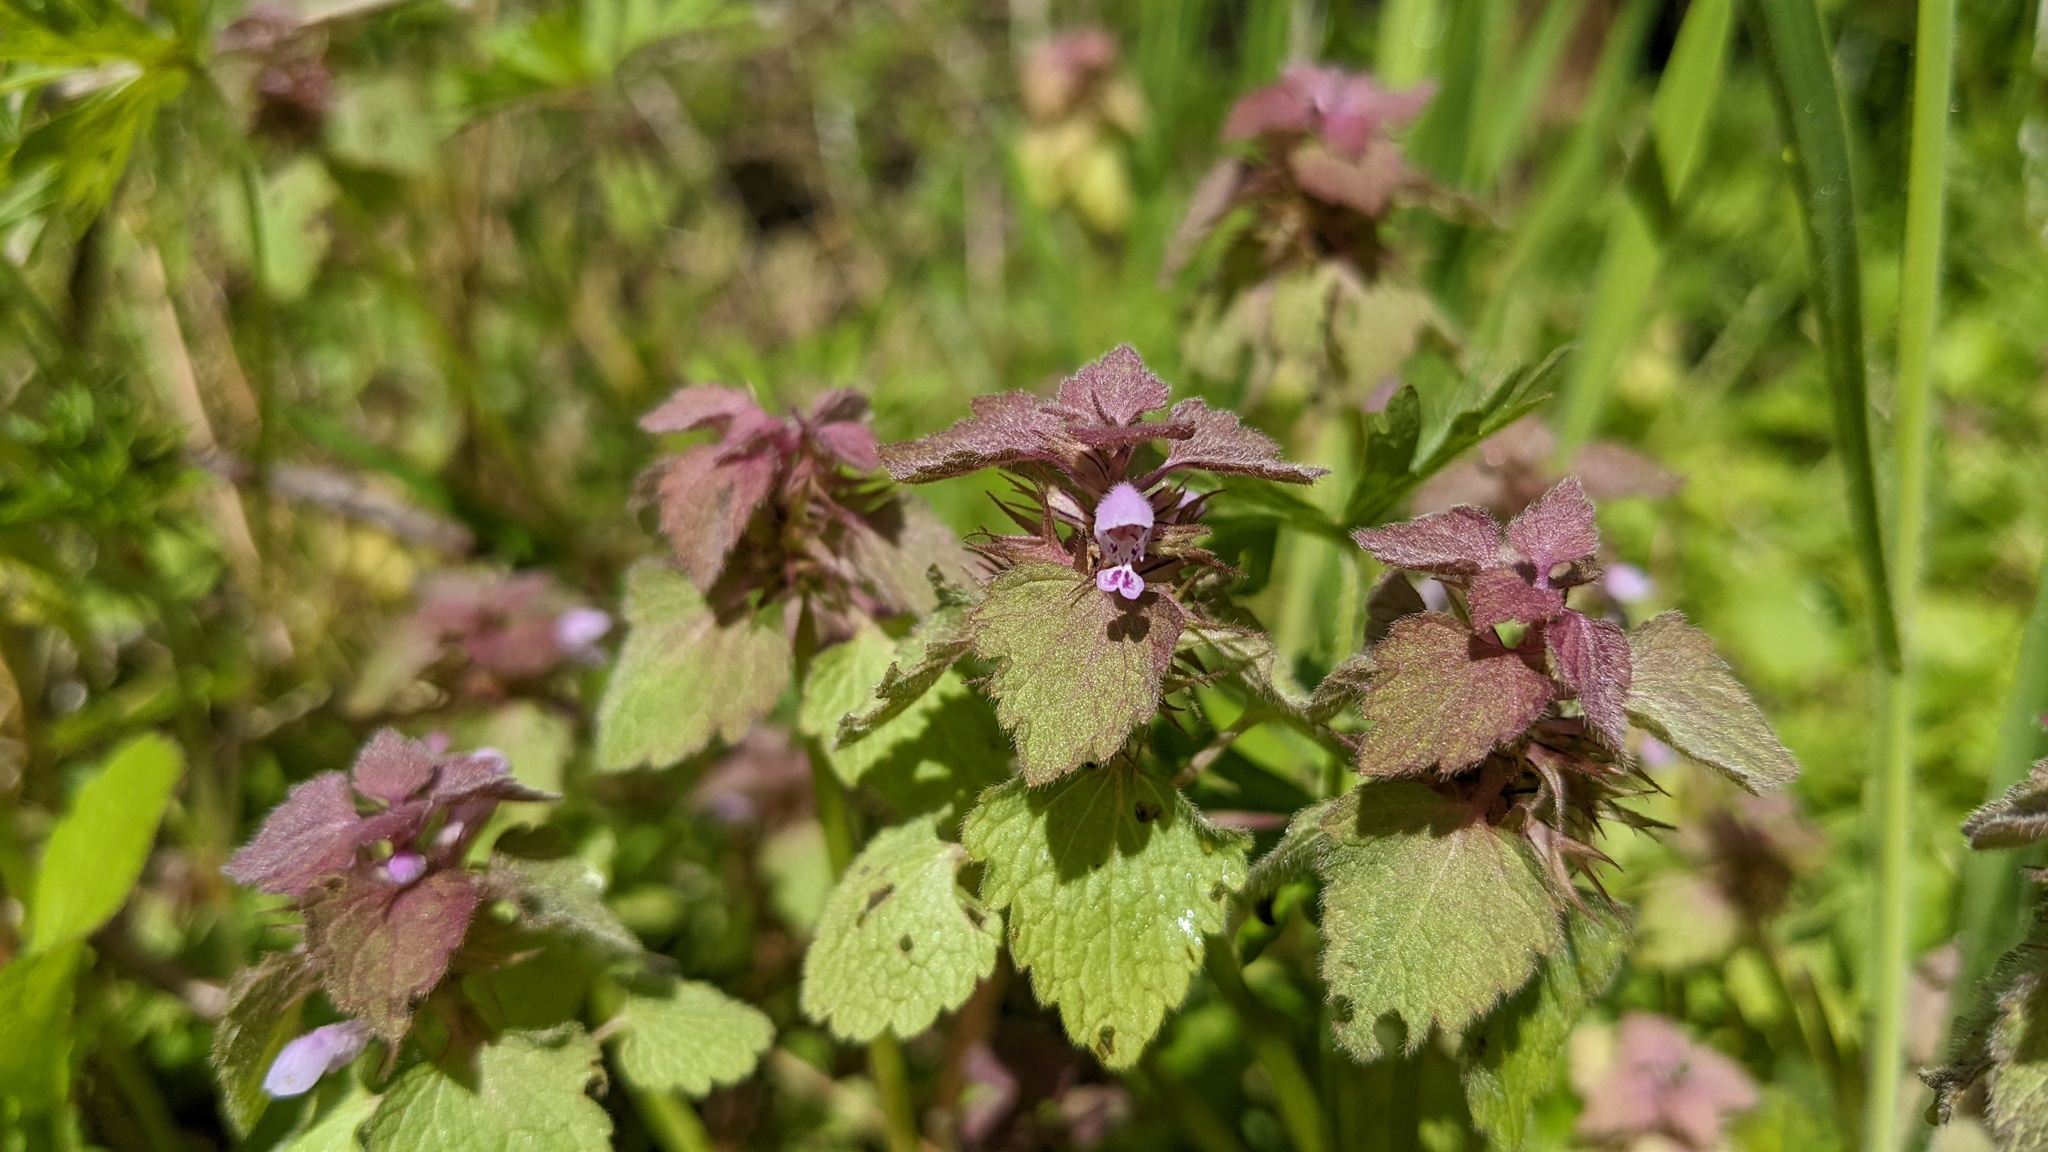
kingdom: Plantae
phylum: Tracheophyta
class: Magnoliopsida
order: Lamiales
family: Lamiaceae
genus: Lamium
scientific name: Lamium purpureum
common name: Red dead-nettle
